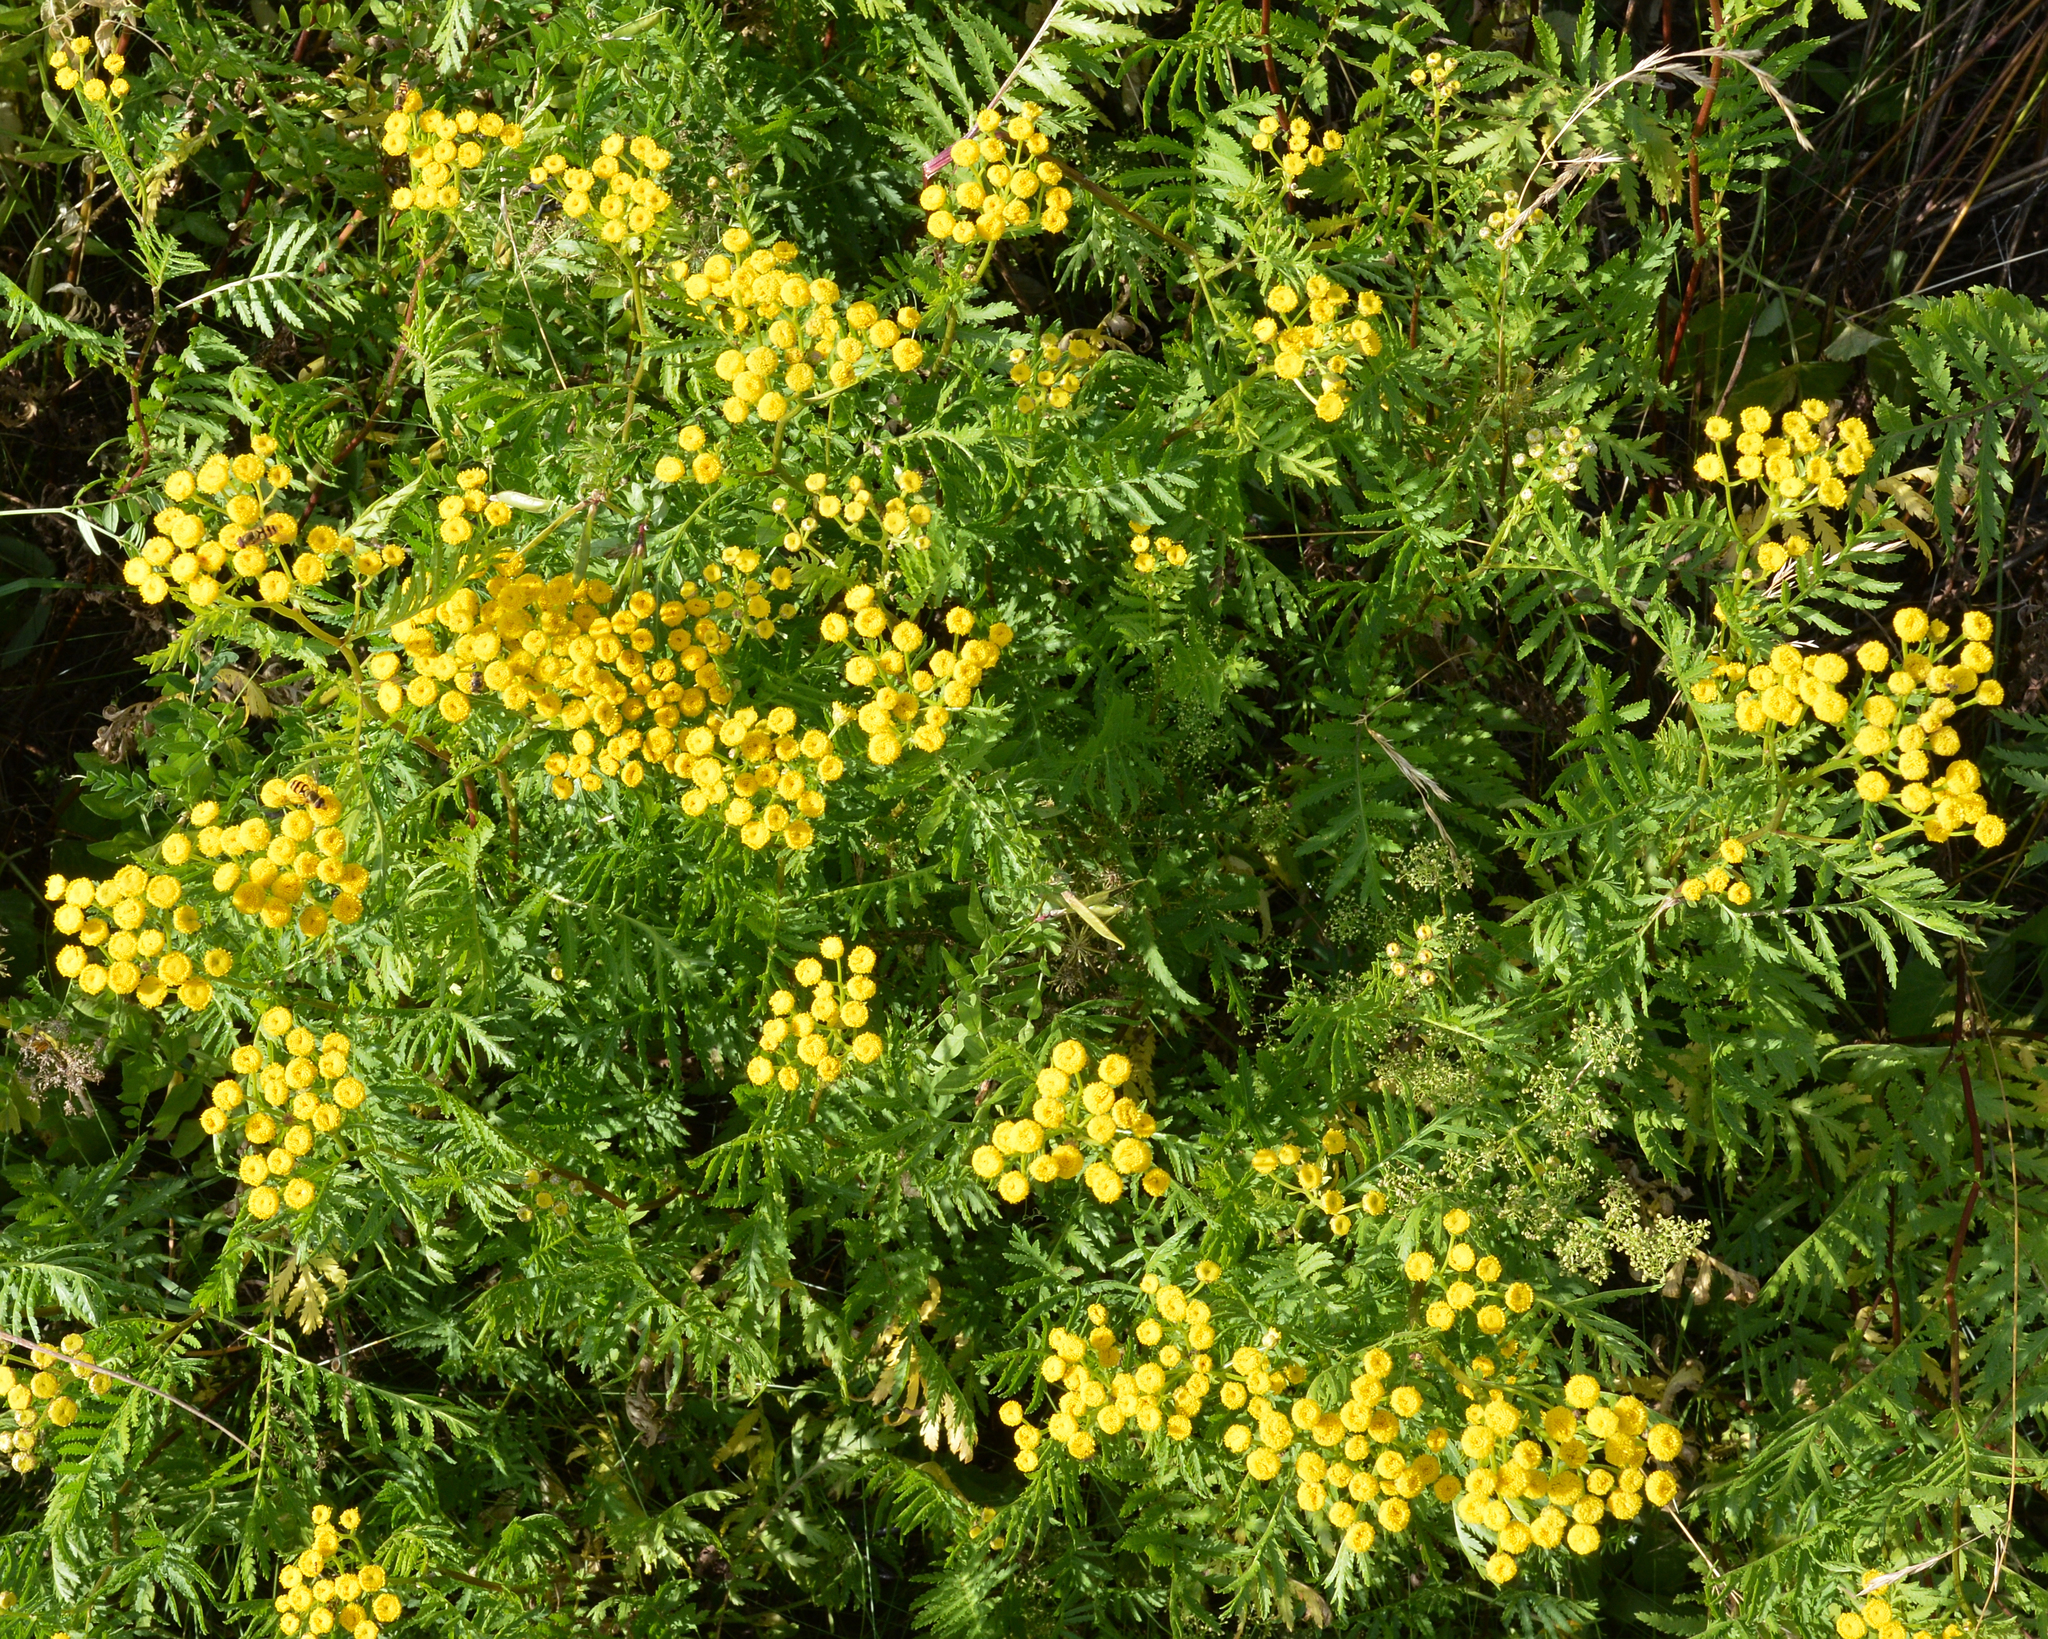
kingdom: Plantae
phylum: Tracheophyta
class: Magnoliopsida
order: Asterales
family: Asteraceae
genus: Tanacetum
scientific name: Tanacetum vulgare
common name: Common tansy
